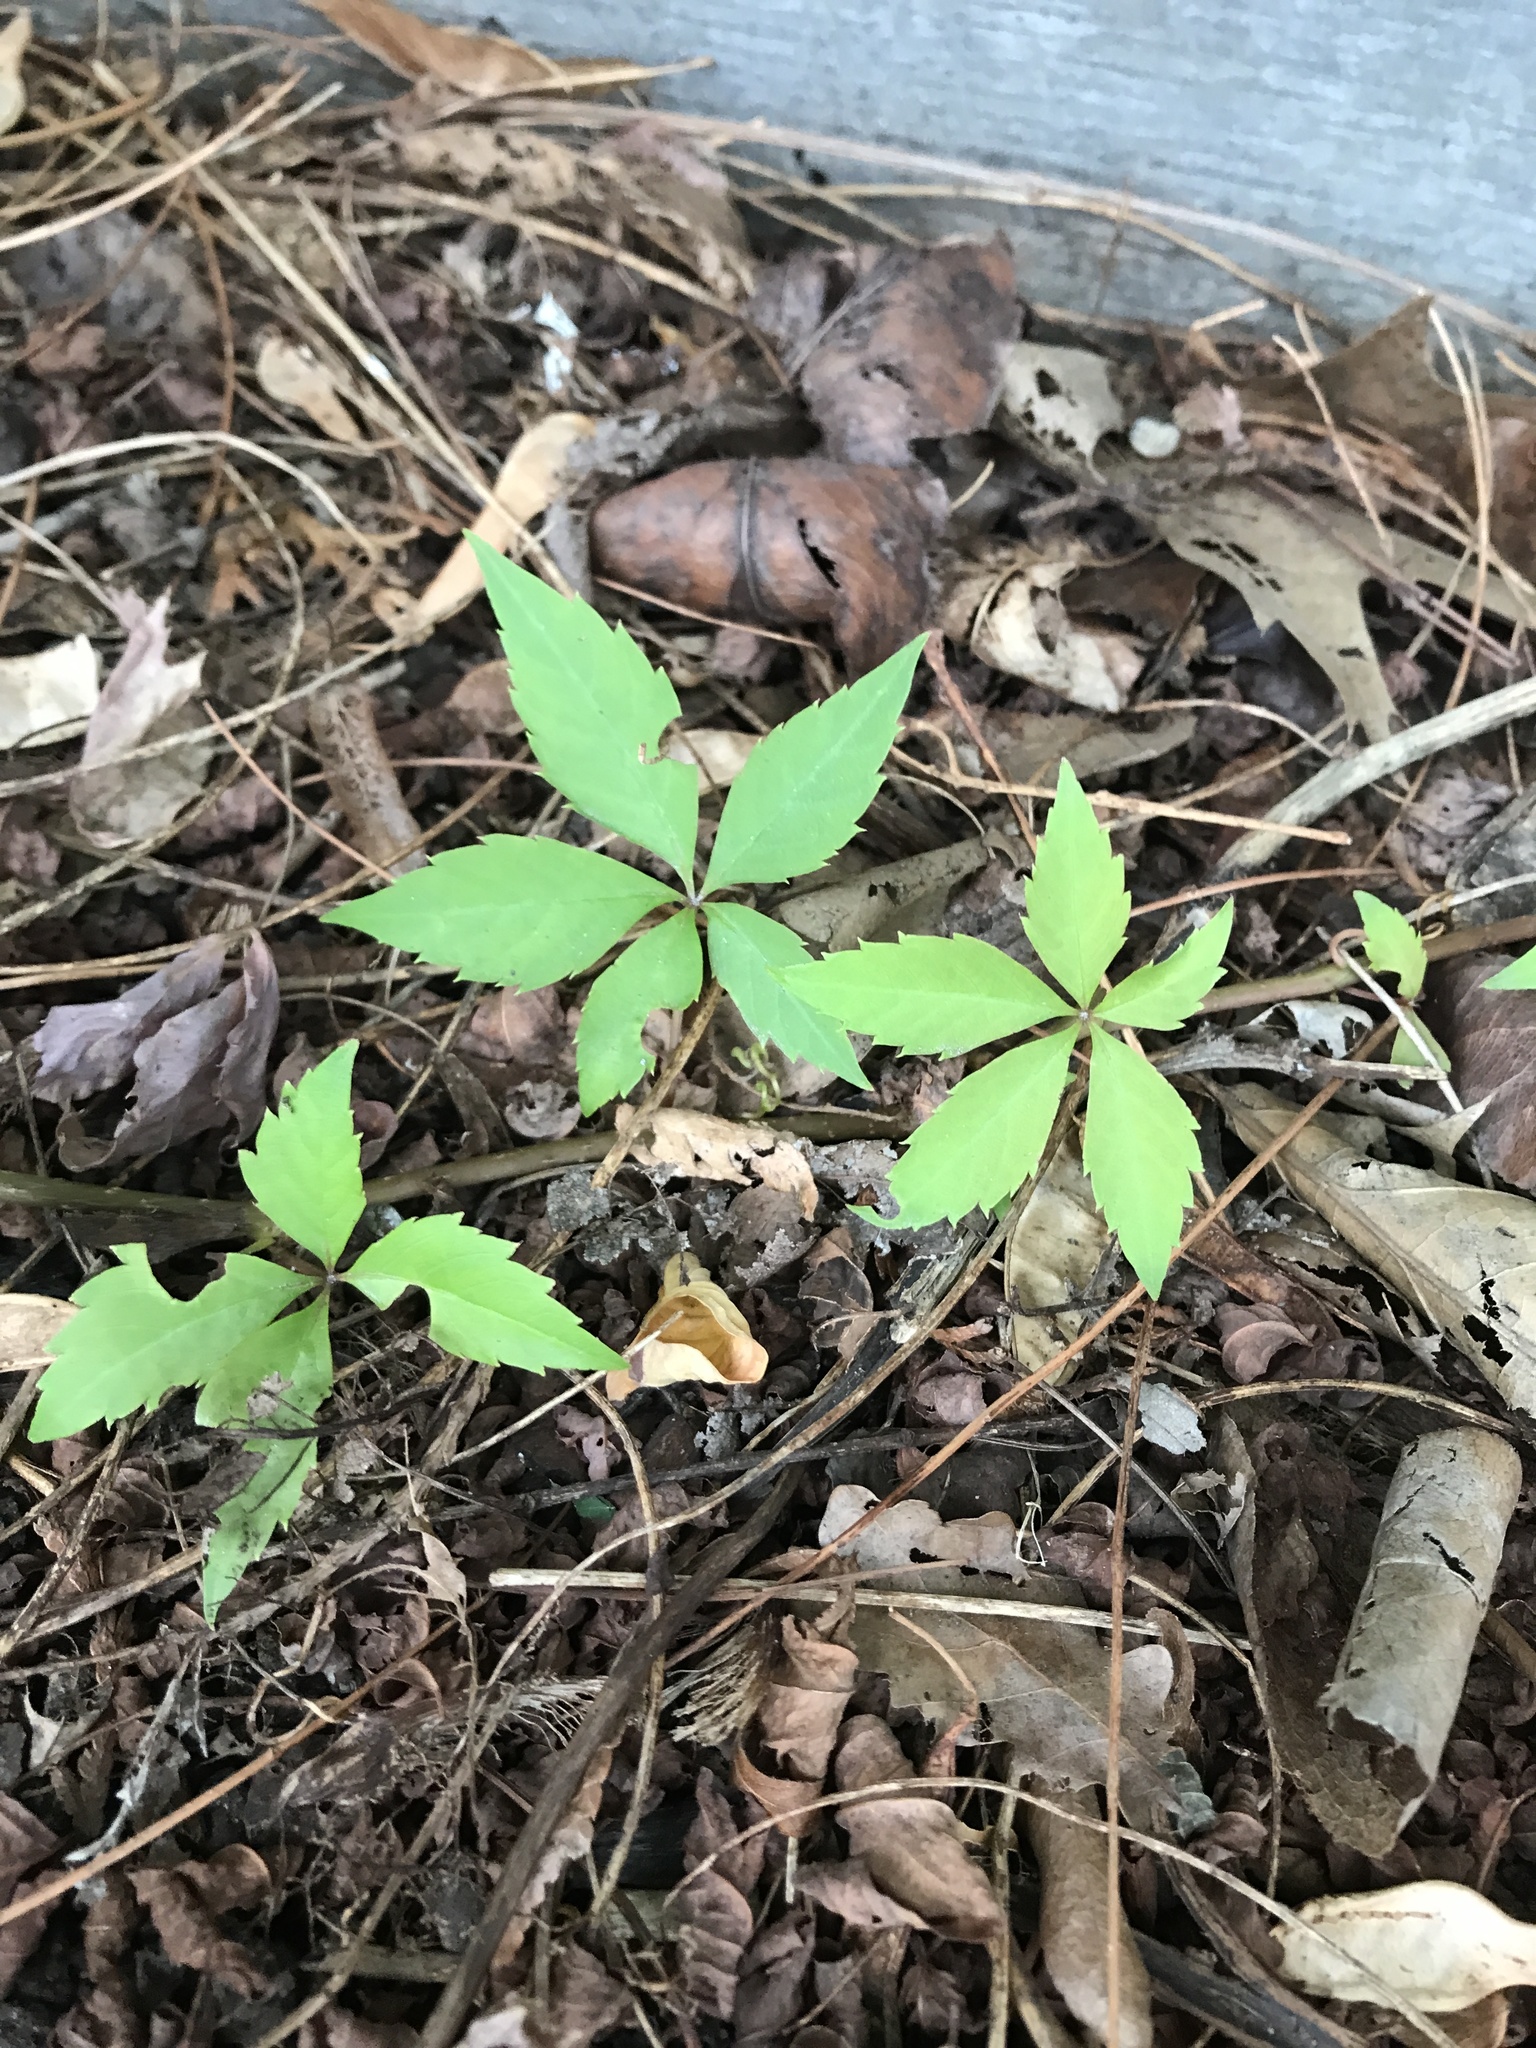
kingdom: Plantae
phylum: Tracheophyta
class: Magnoliopsida
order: Vitales
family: Vitaceae
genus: Parthenocissus
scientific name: Parthenocissus quinquefolia
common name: Virginia-creeper
